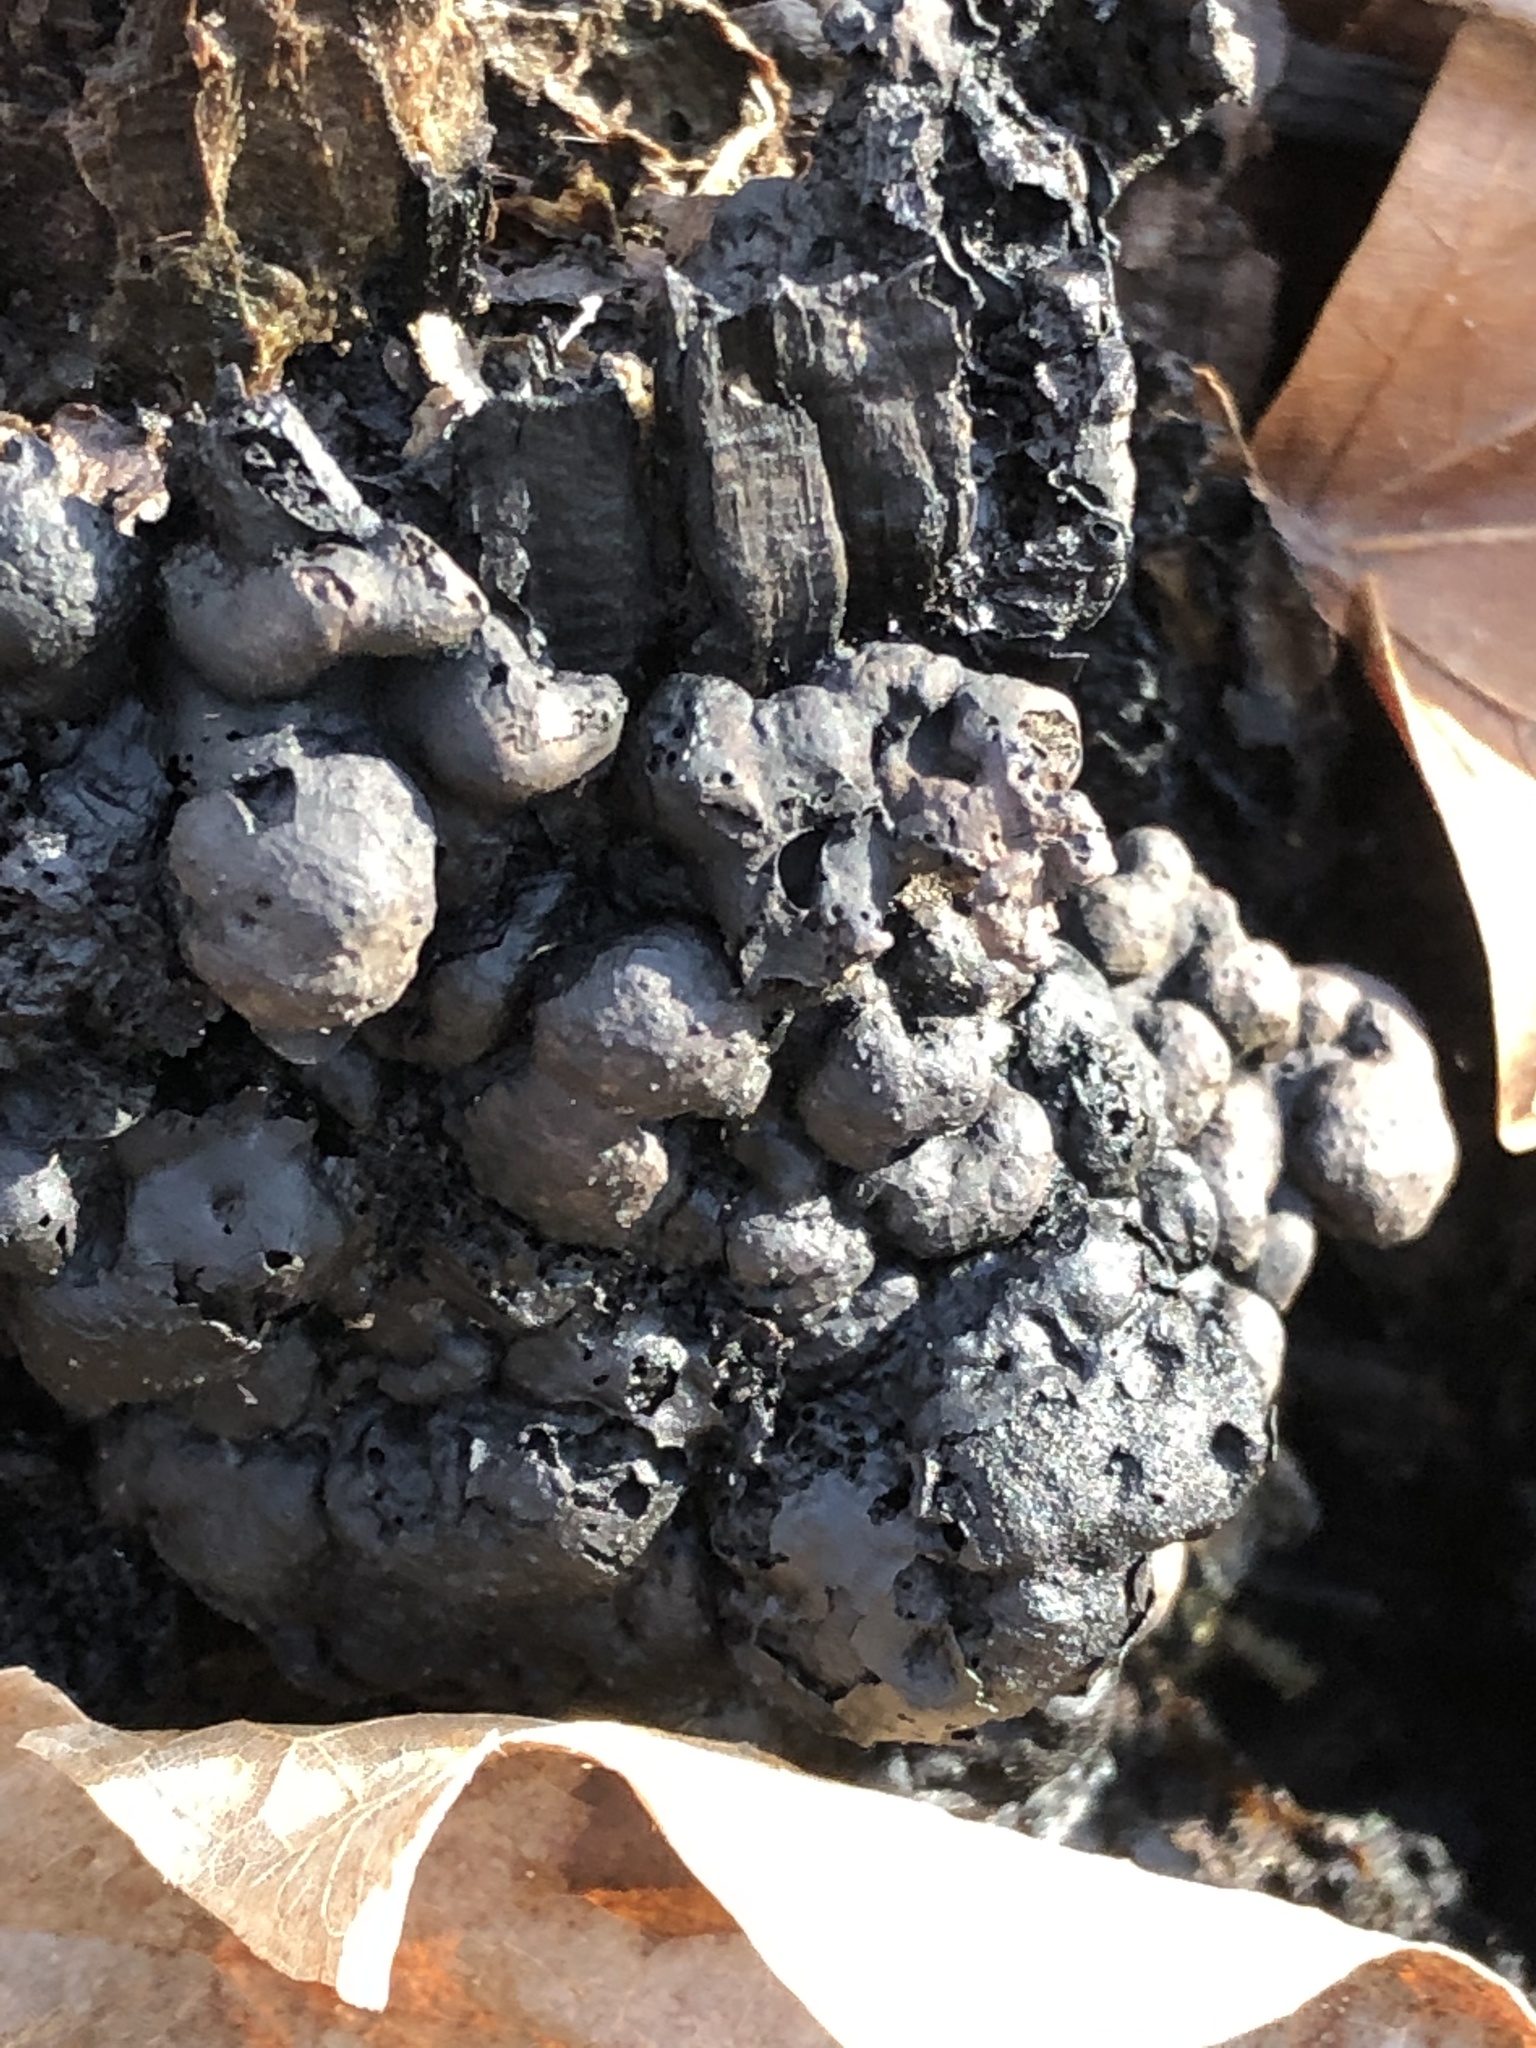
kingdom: Fungi
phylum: Ascomycota
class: Sordariomycetes
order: Xylariales
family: Xylariaceae
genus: Kretzschmaria
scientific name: Kretzschmaria deusta
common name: Brittle cinder
